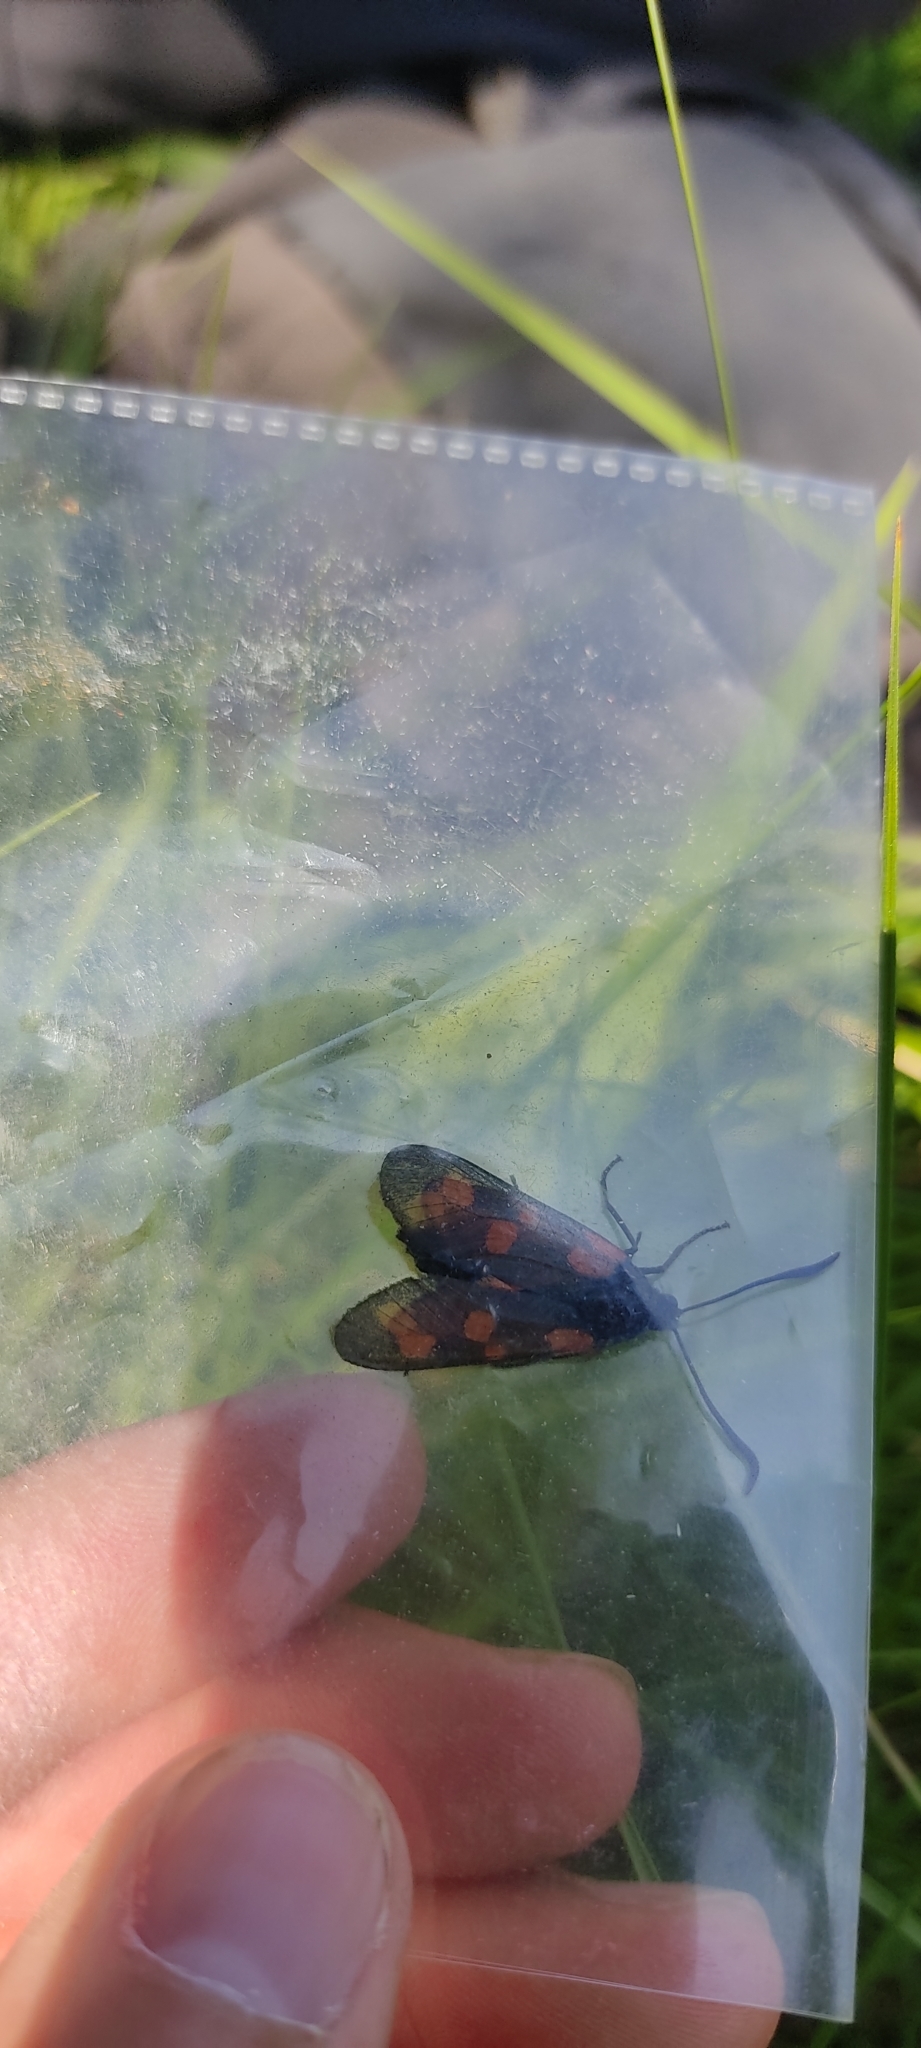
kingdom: Animalia
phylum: Arthropoda
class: Insecta
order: Lepidoptera
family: Zygaenidae
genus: Zygaena
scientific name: Zygaena filipendulae
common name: Six-spot burnet
